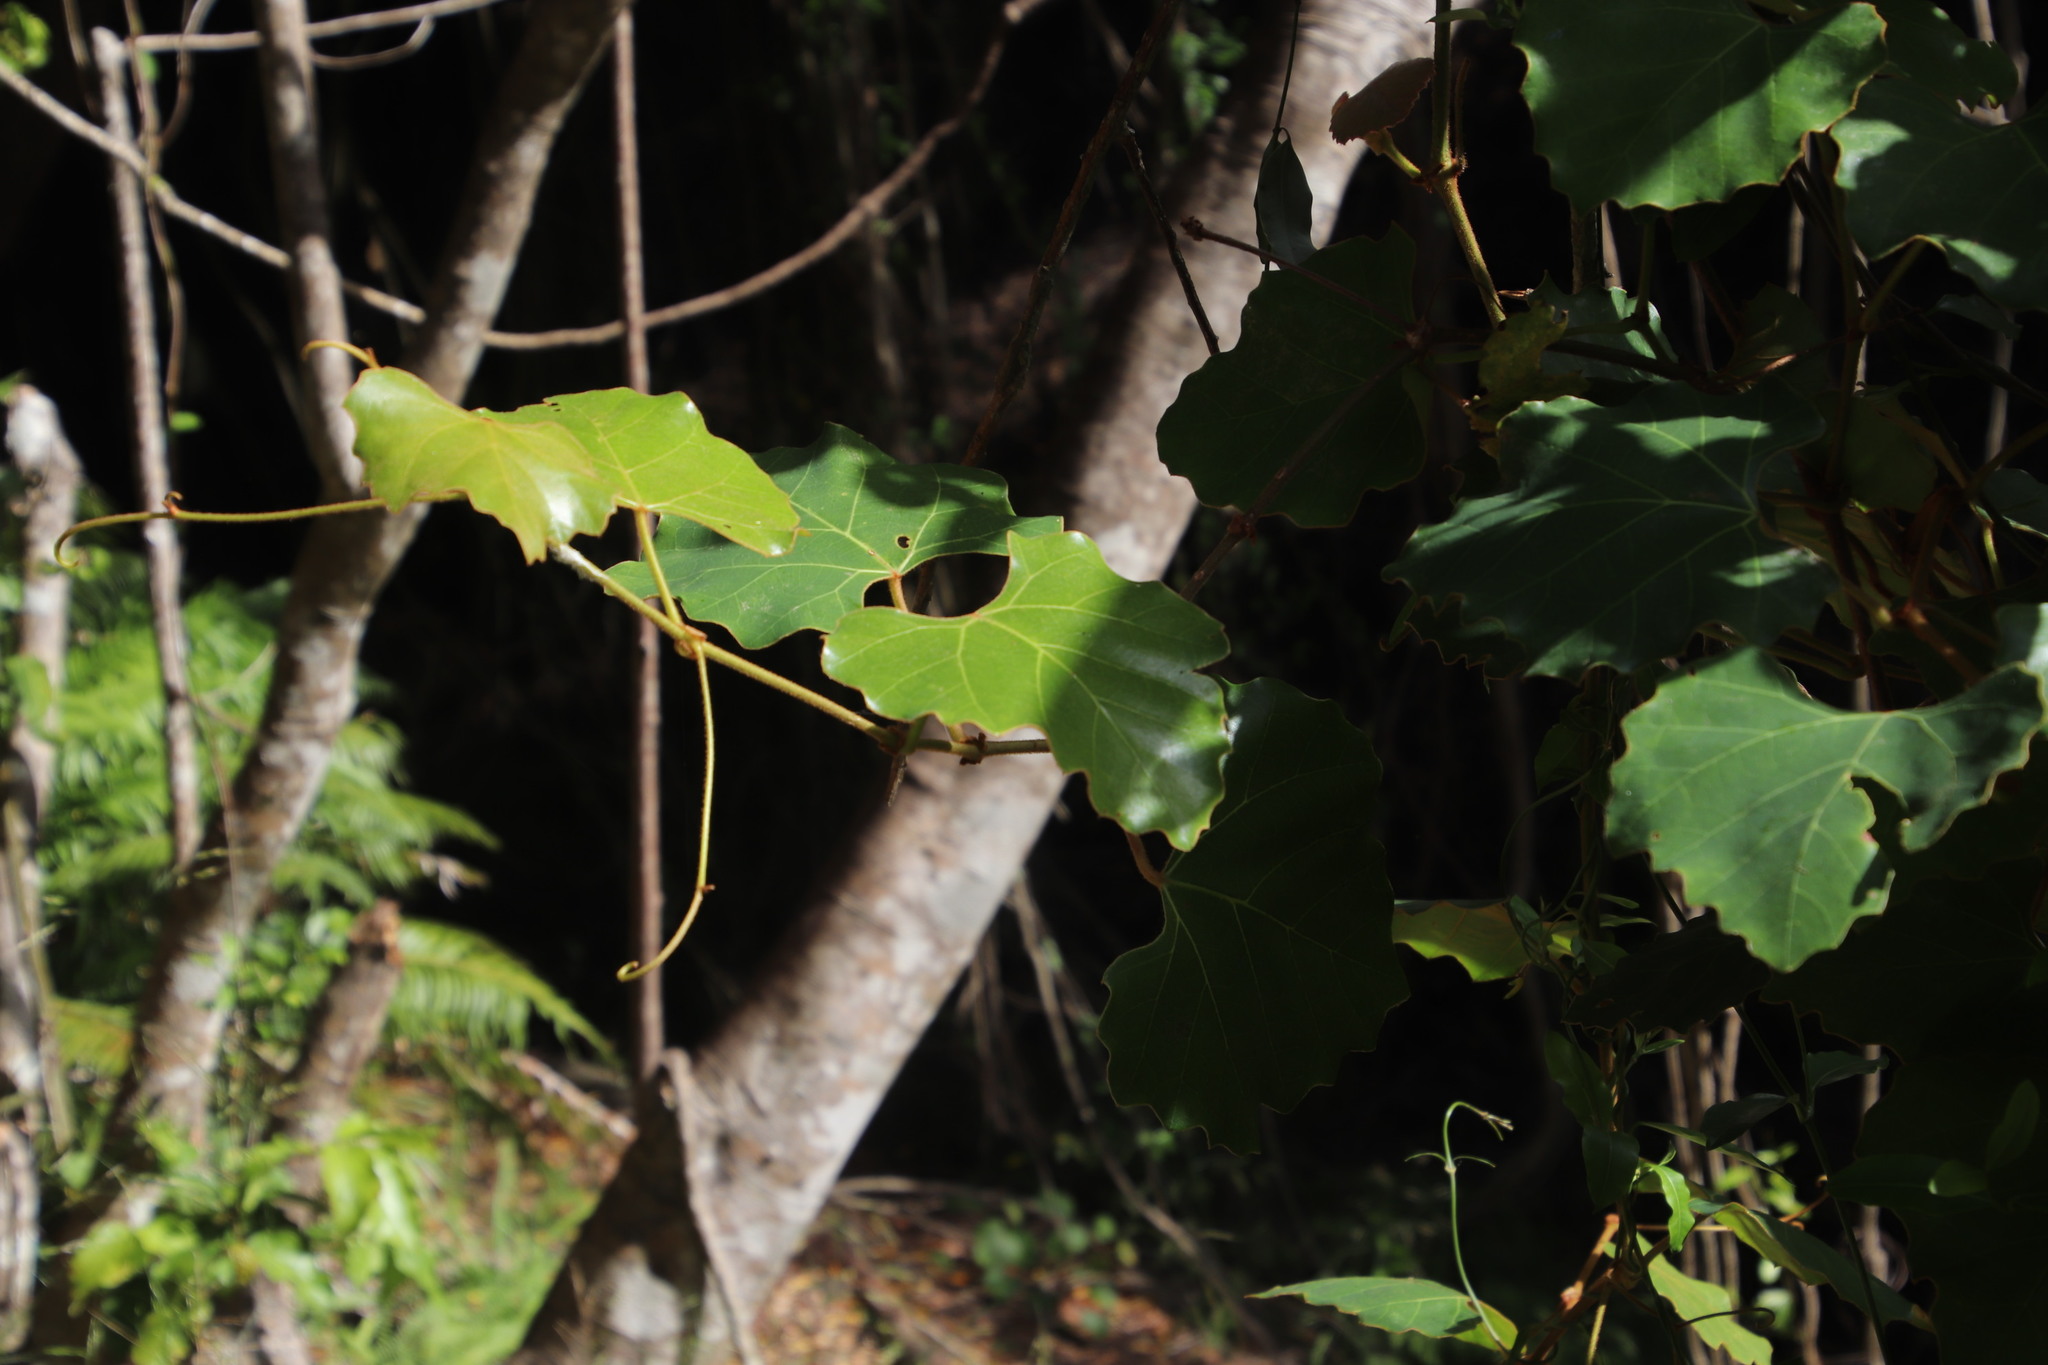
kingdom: Plantae
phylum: Tracheophyta
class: Magnoliopsida
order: Vitales
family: Vitaceae
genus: Rhoicissus
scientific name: Rhoicissus tomentosa
